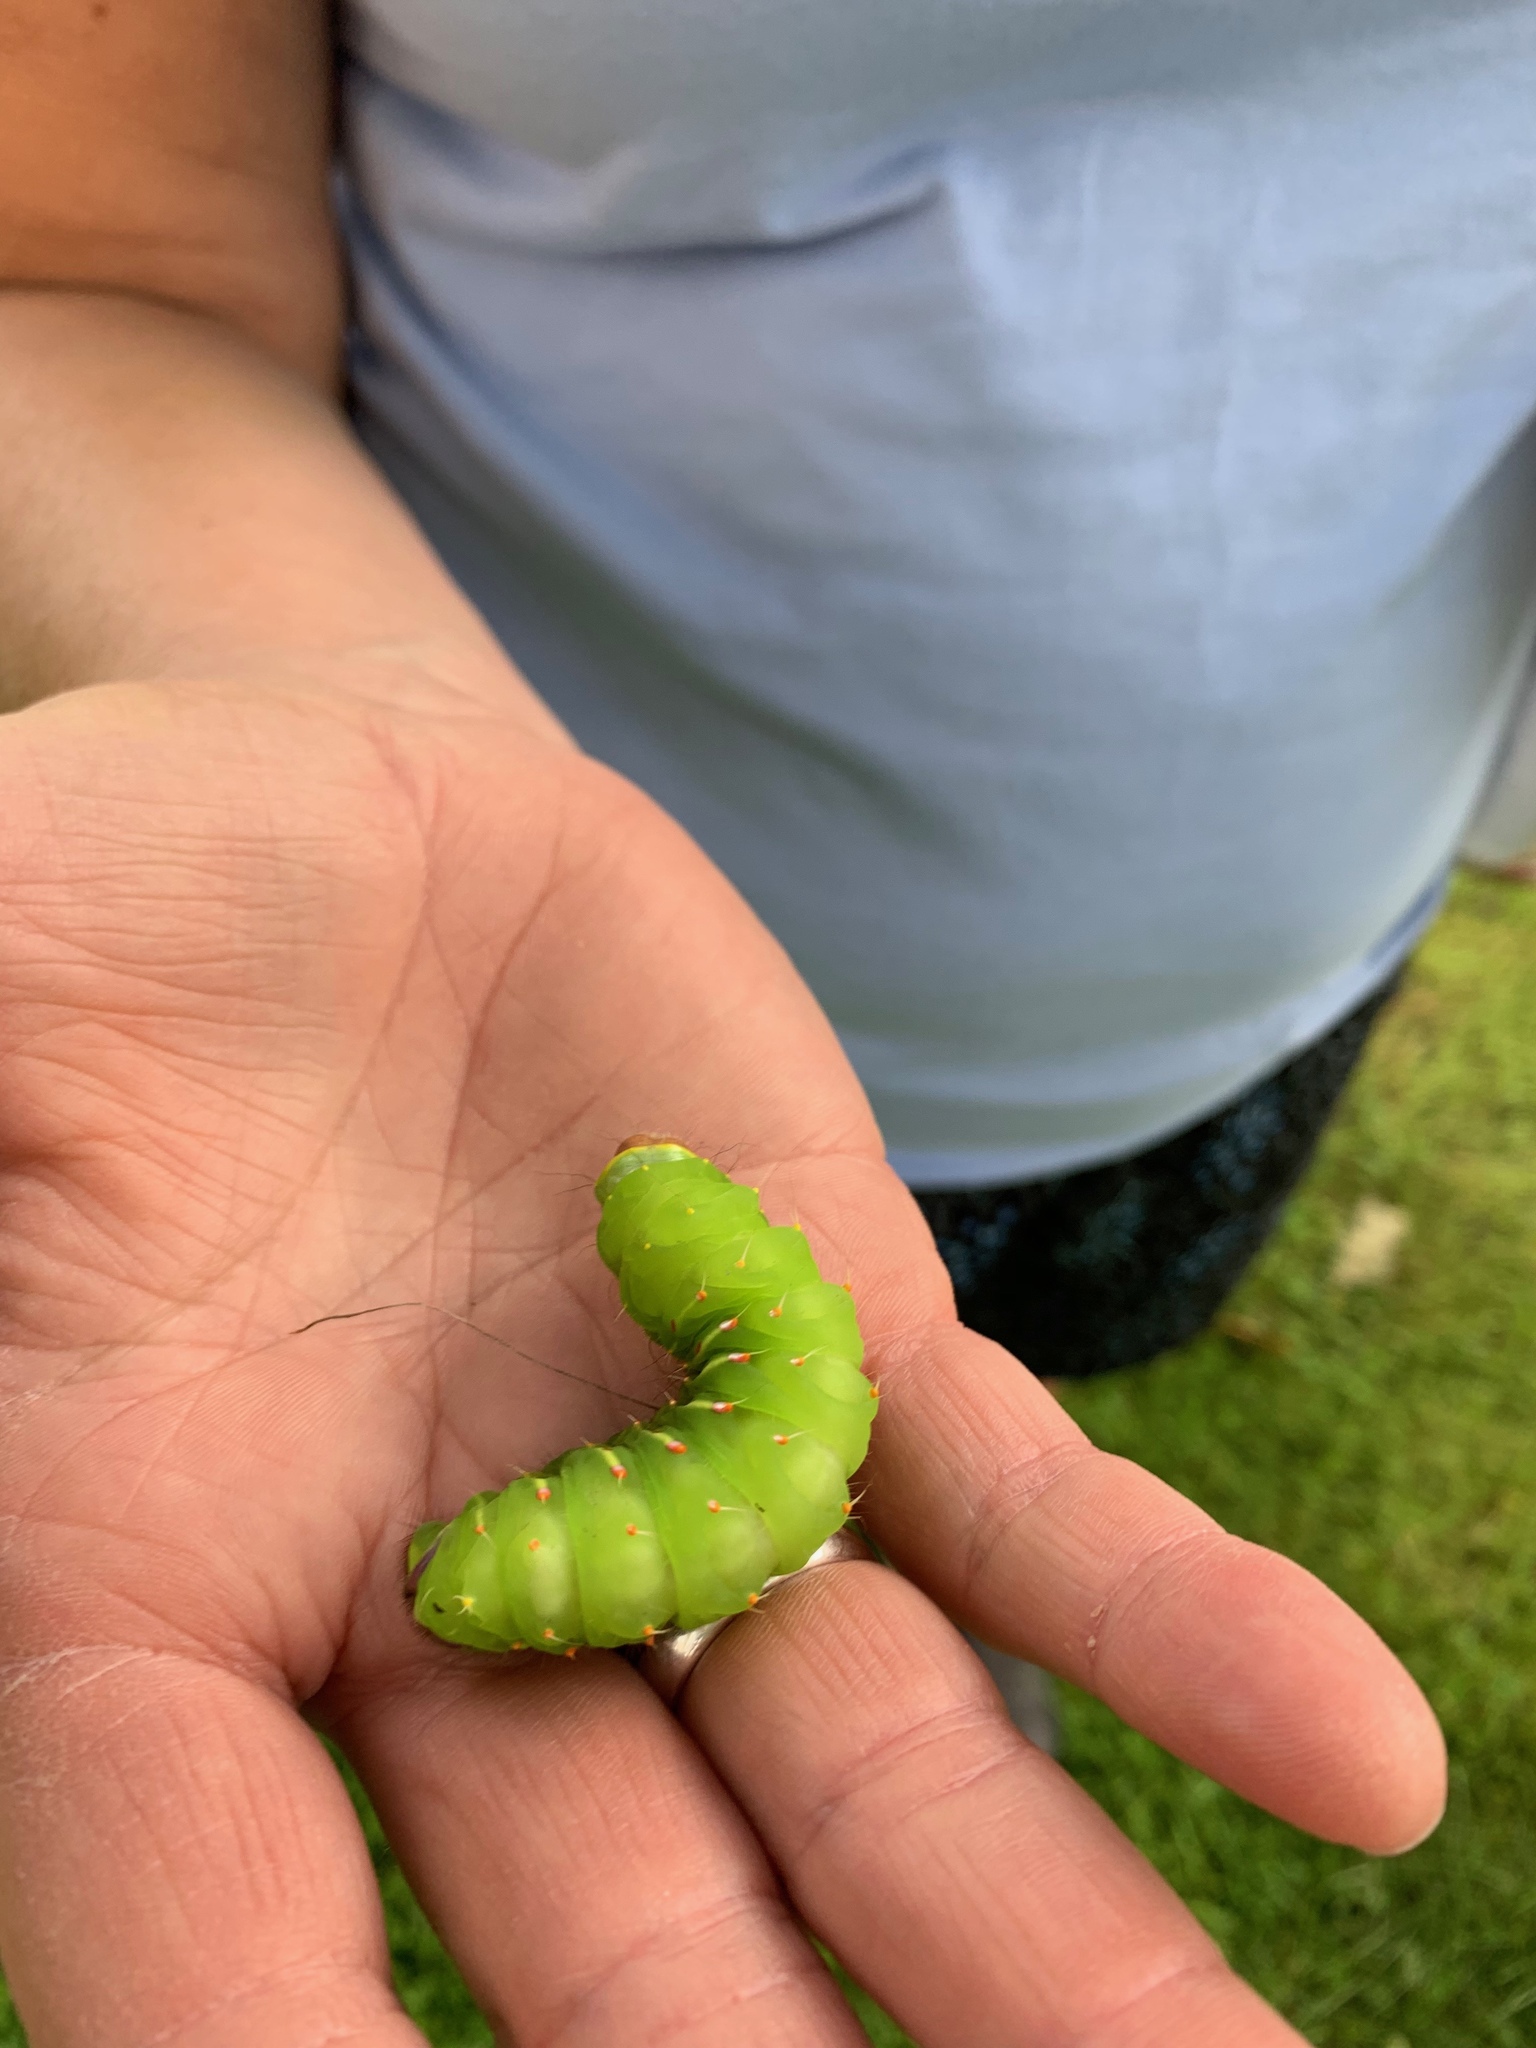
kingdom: Animalia
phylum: Arthropoda
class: Insecta
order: Lepidoptera
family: Saturniidae
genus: Antheraea
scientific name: Antheraea polyphemus
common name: Polyphemus moth
